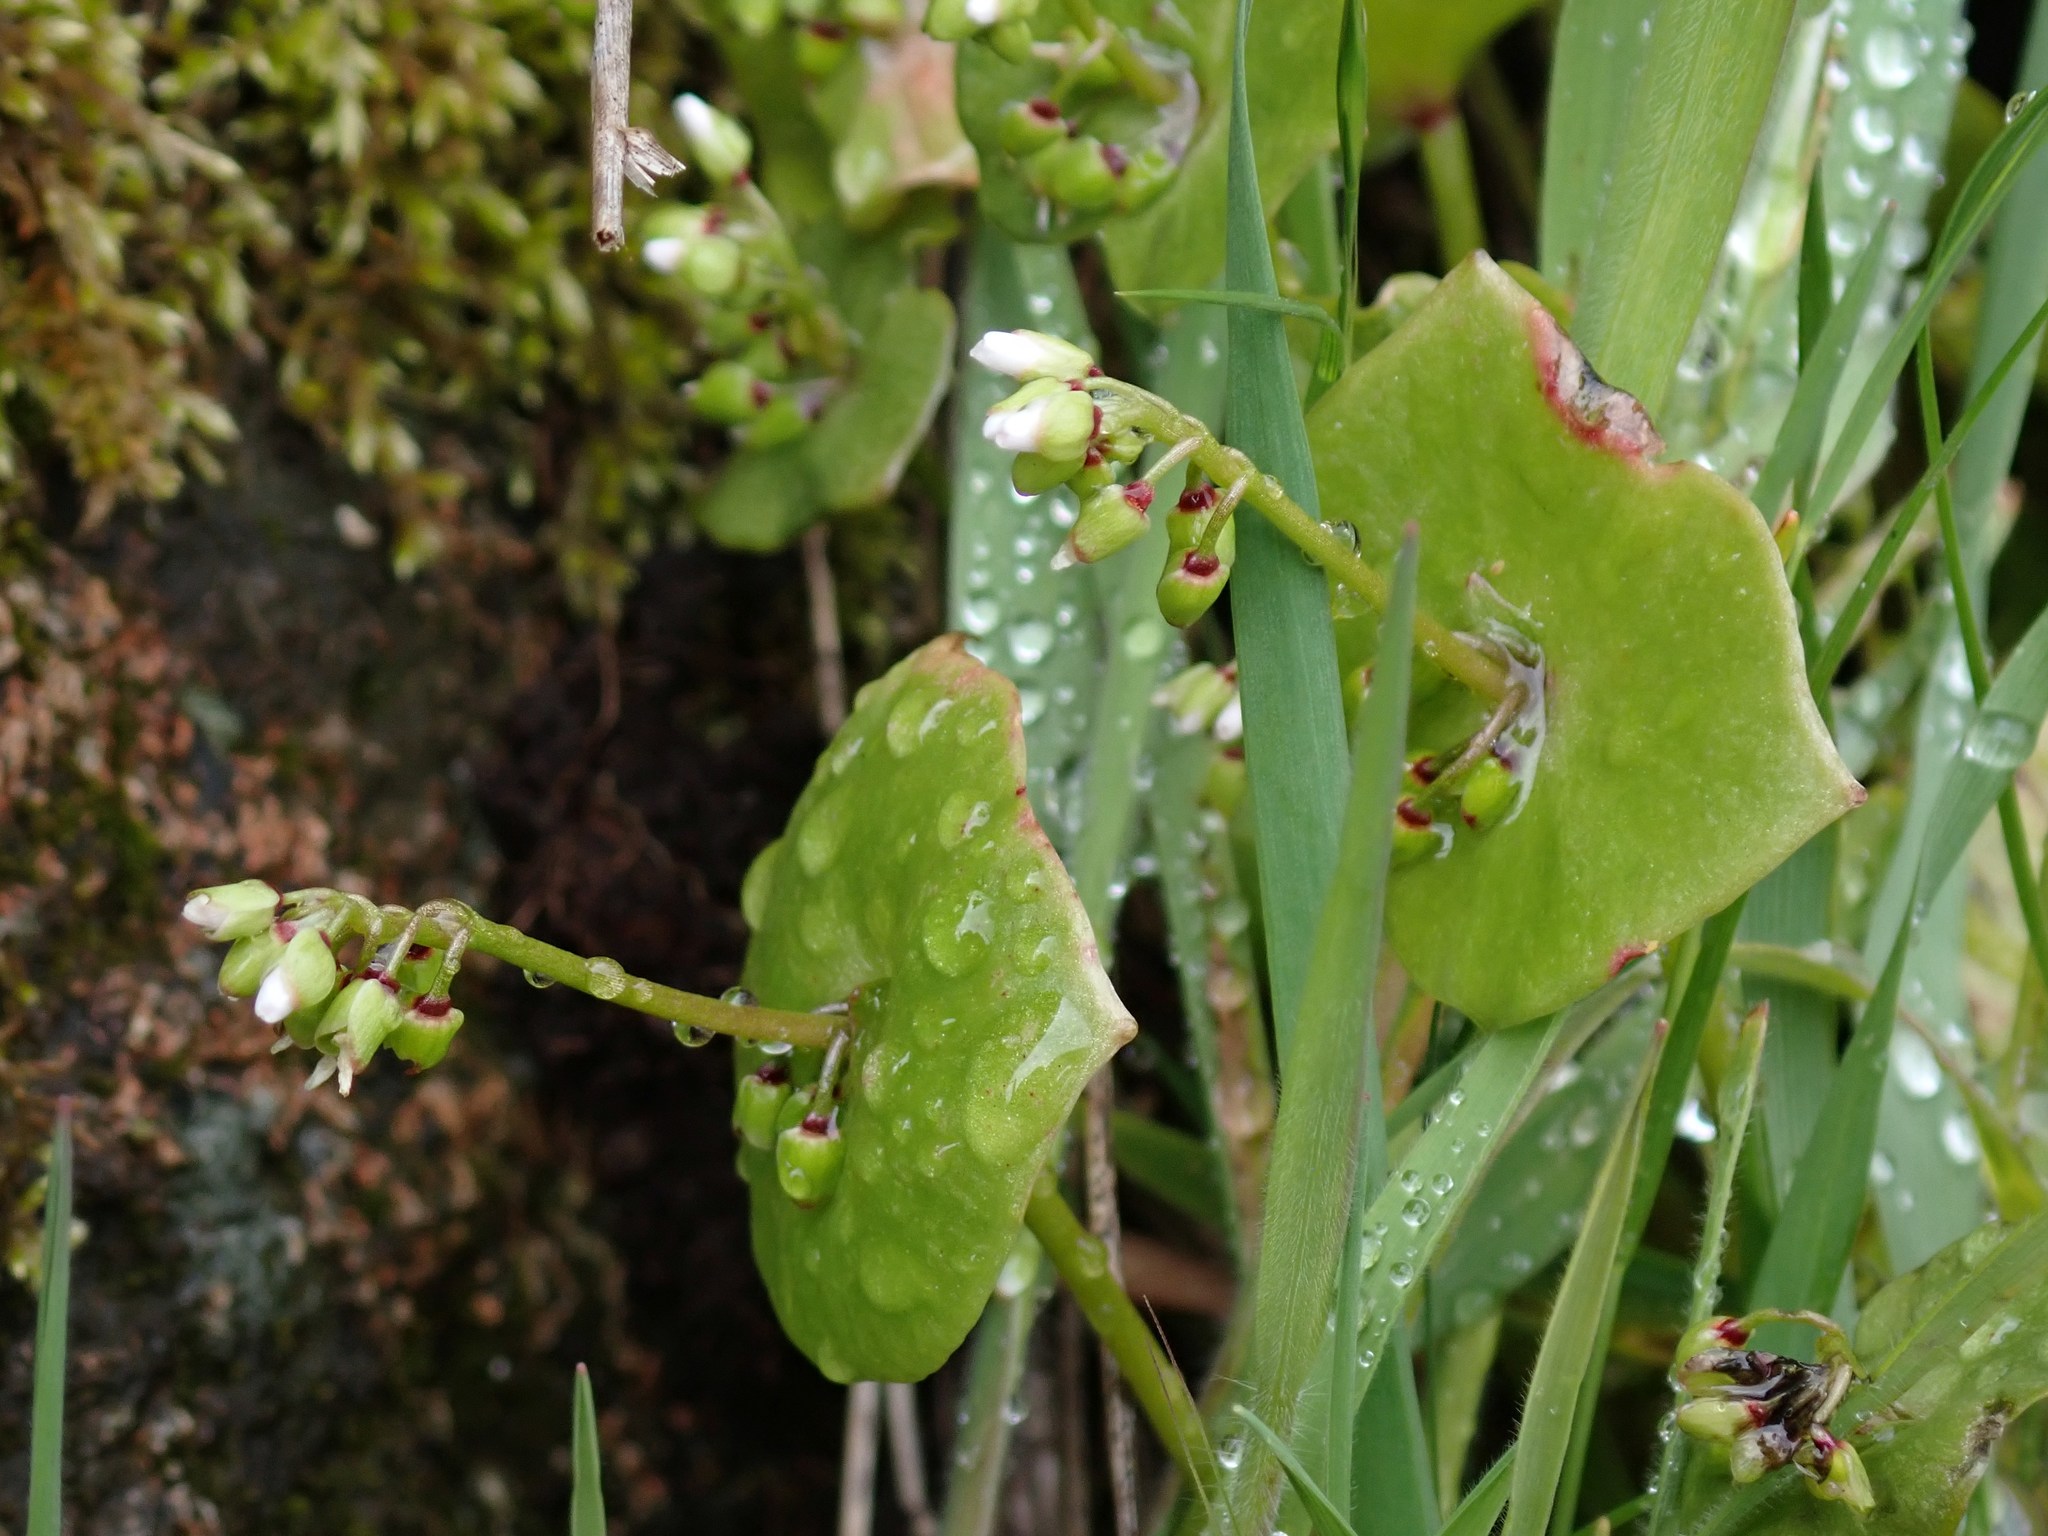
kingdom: Plantae
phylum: Tracheophyta
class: Magnoliopsida
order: Caryophyllales
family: Montiaceae
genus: Claytonia
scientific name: Claytonia perfoliata
